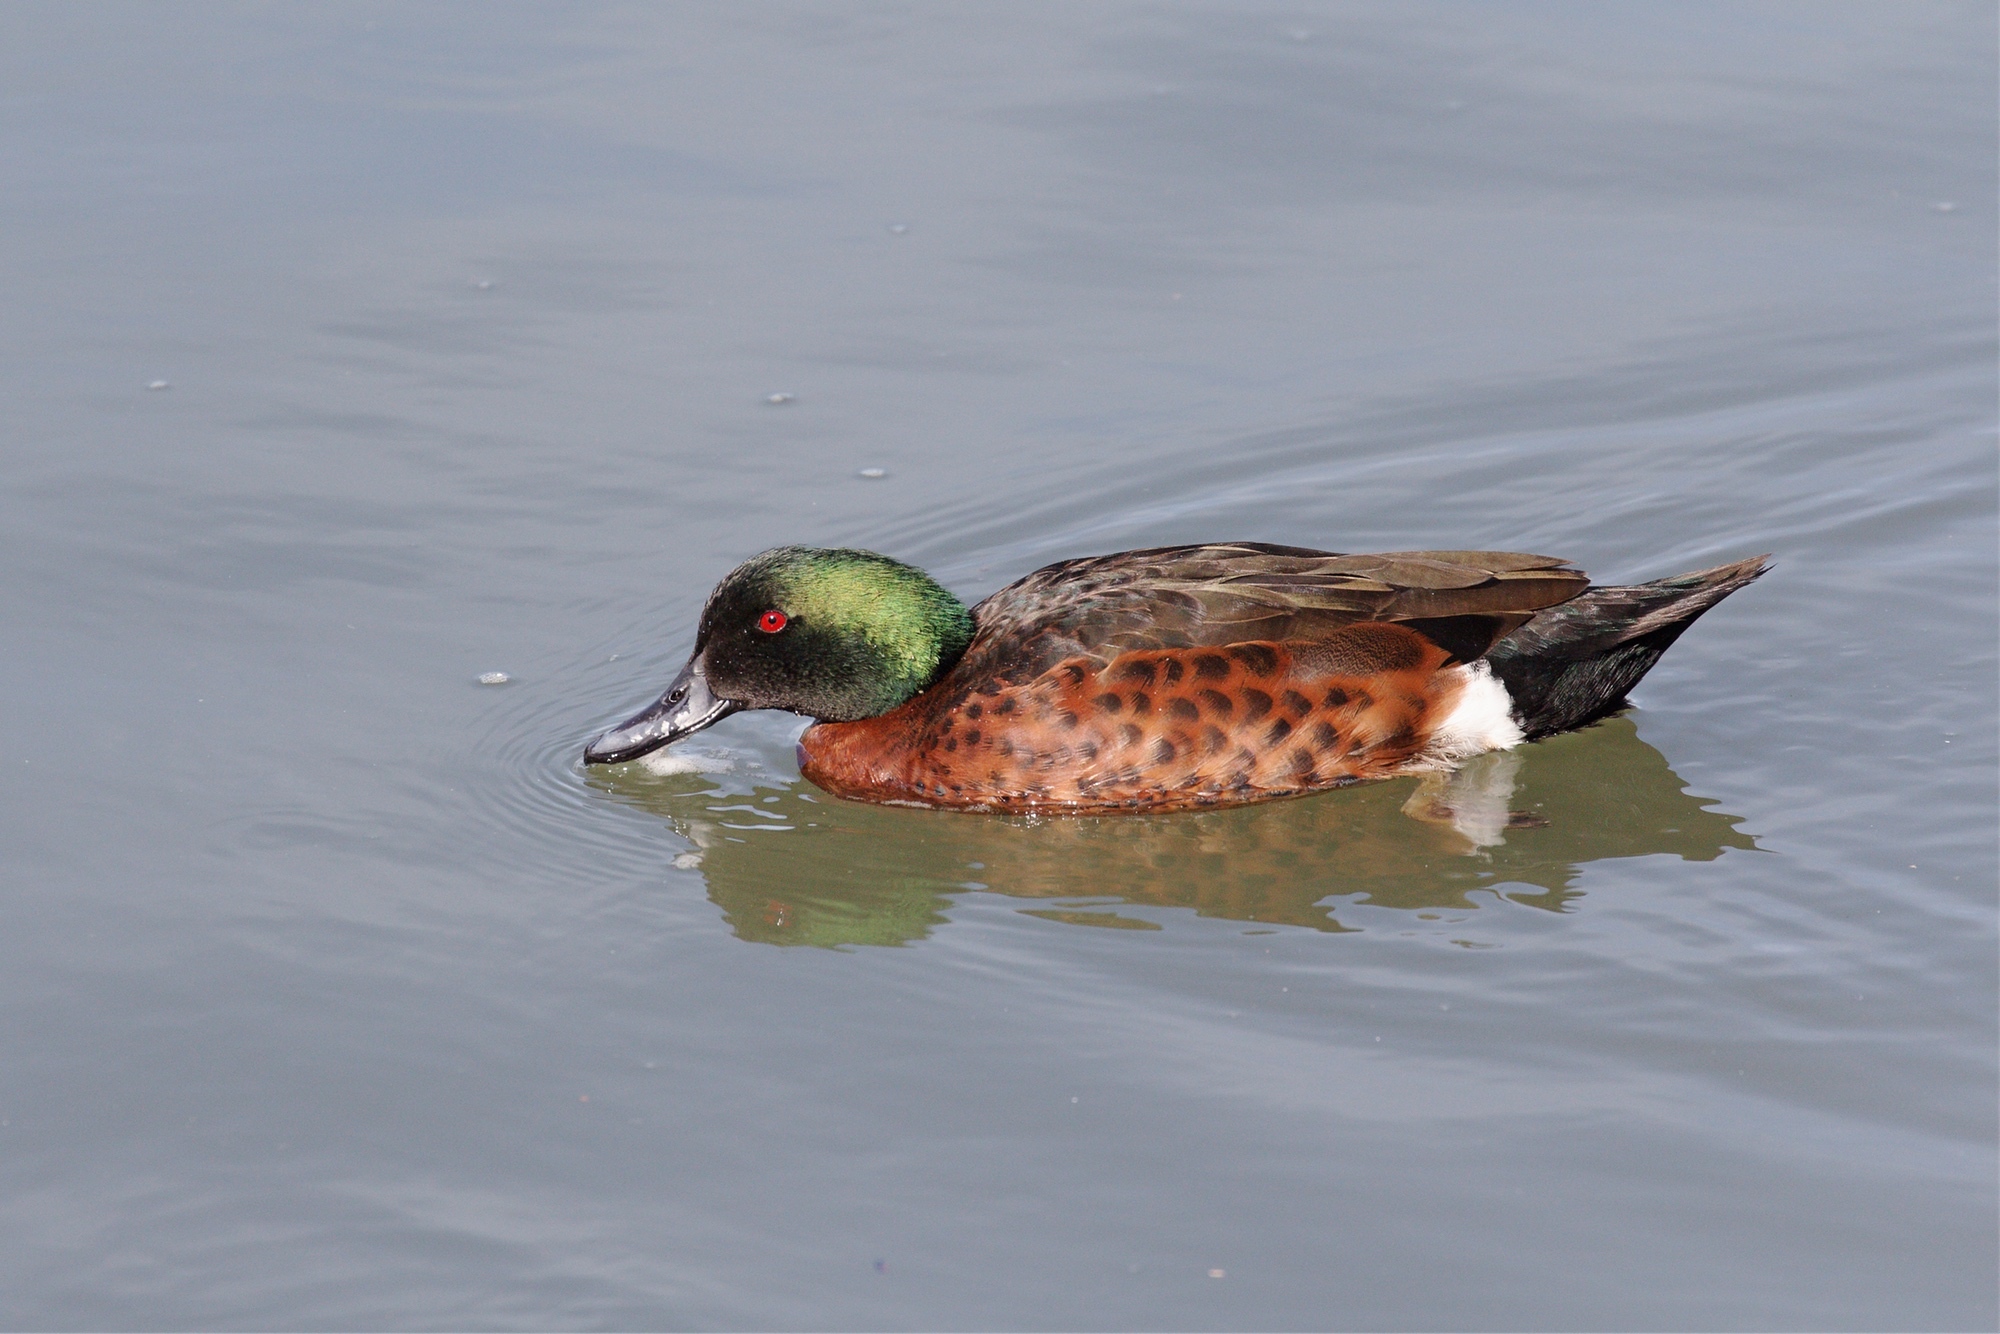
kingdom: Animalia
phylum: Chordata
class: Aves
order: Anseriformes
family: Anatidae
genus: Anas
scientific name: Anas castanea
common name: Chestnut teal
